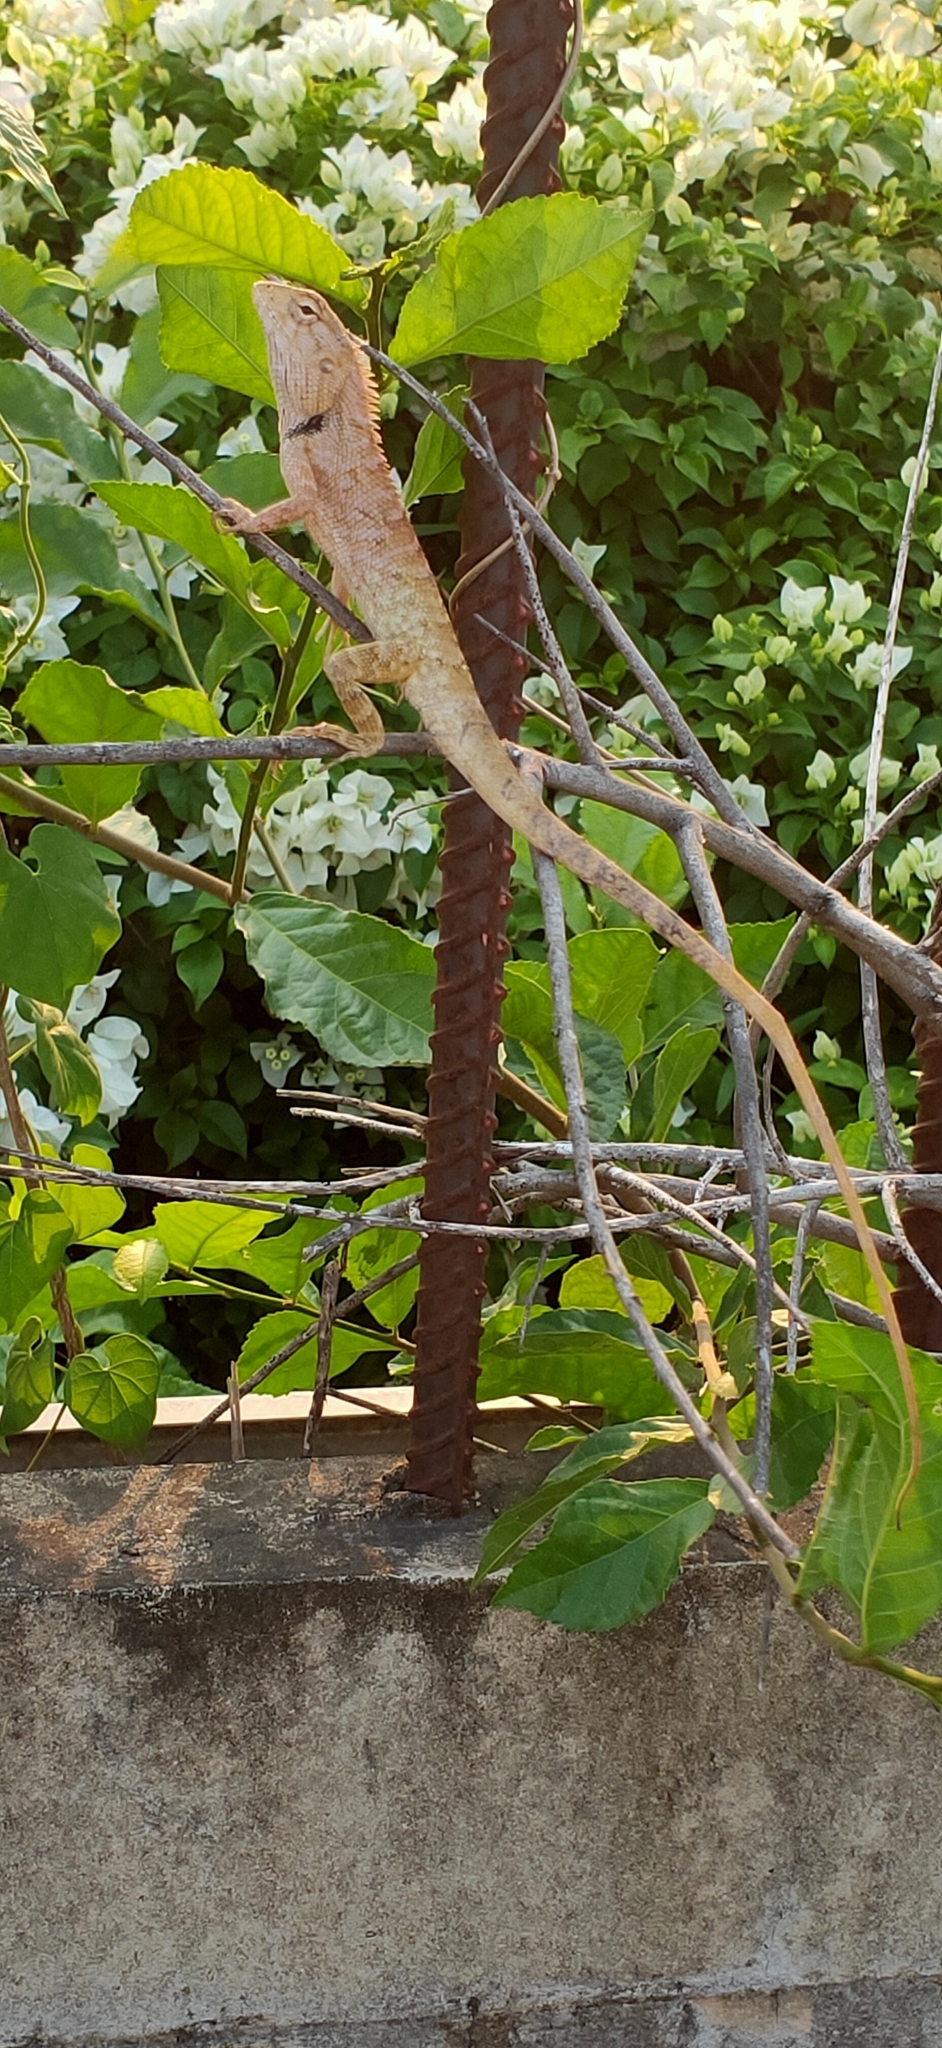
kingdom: Animalia
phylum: Chordata
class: Squamata
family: Agamidae
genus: Calotes
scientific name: Calotes versicolor
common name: Oriental garden lizard
